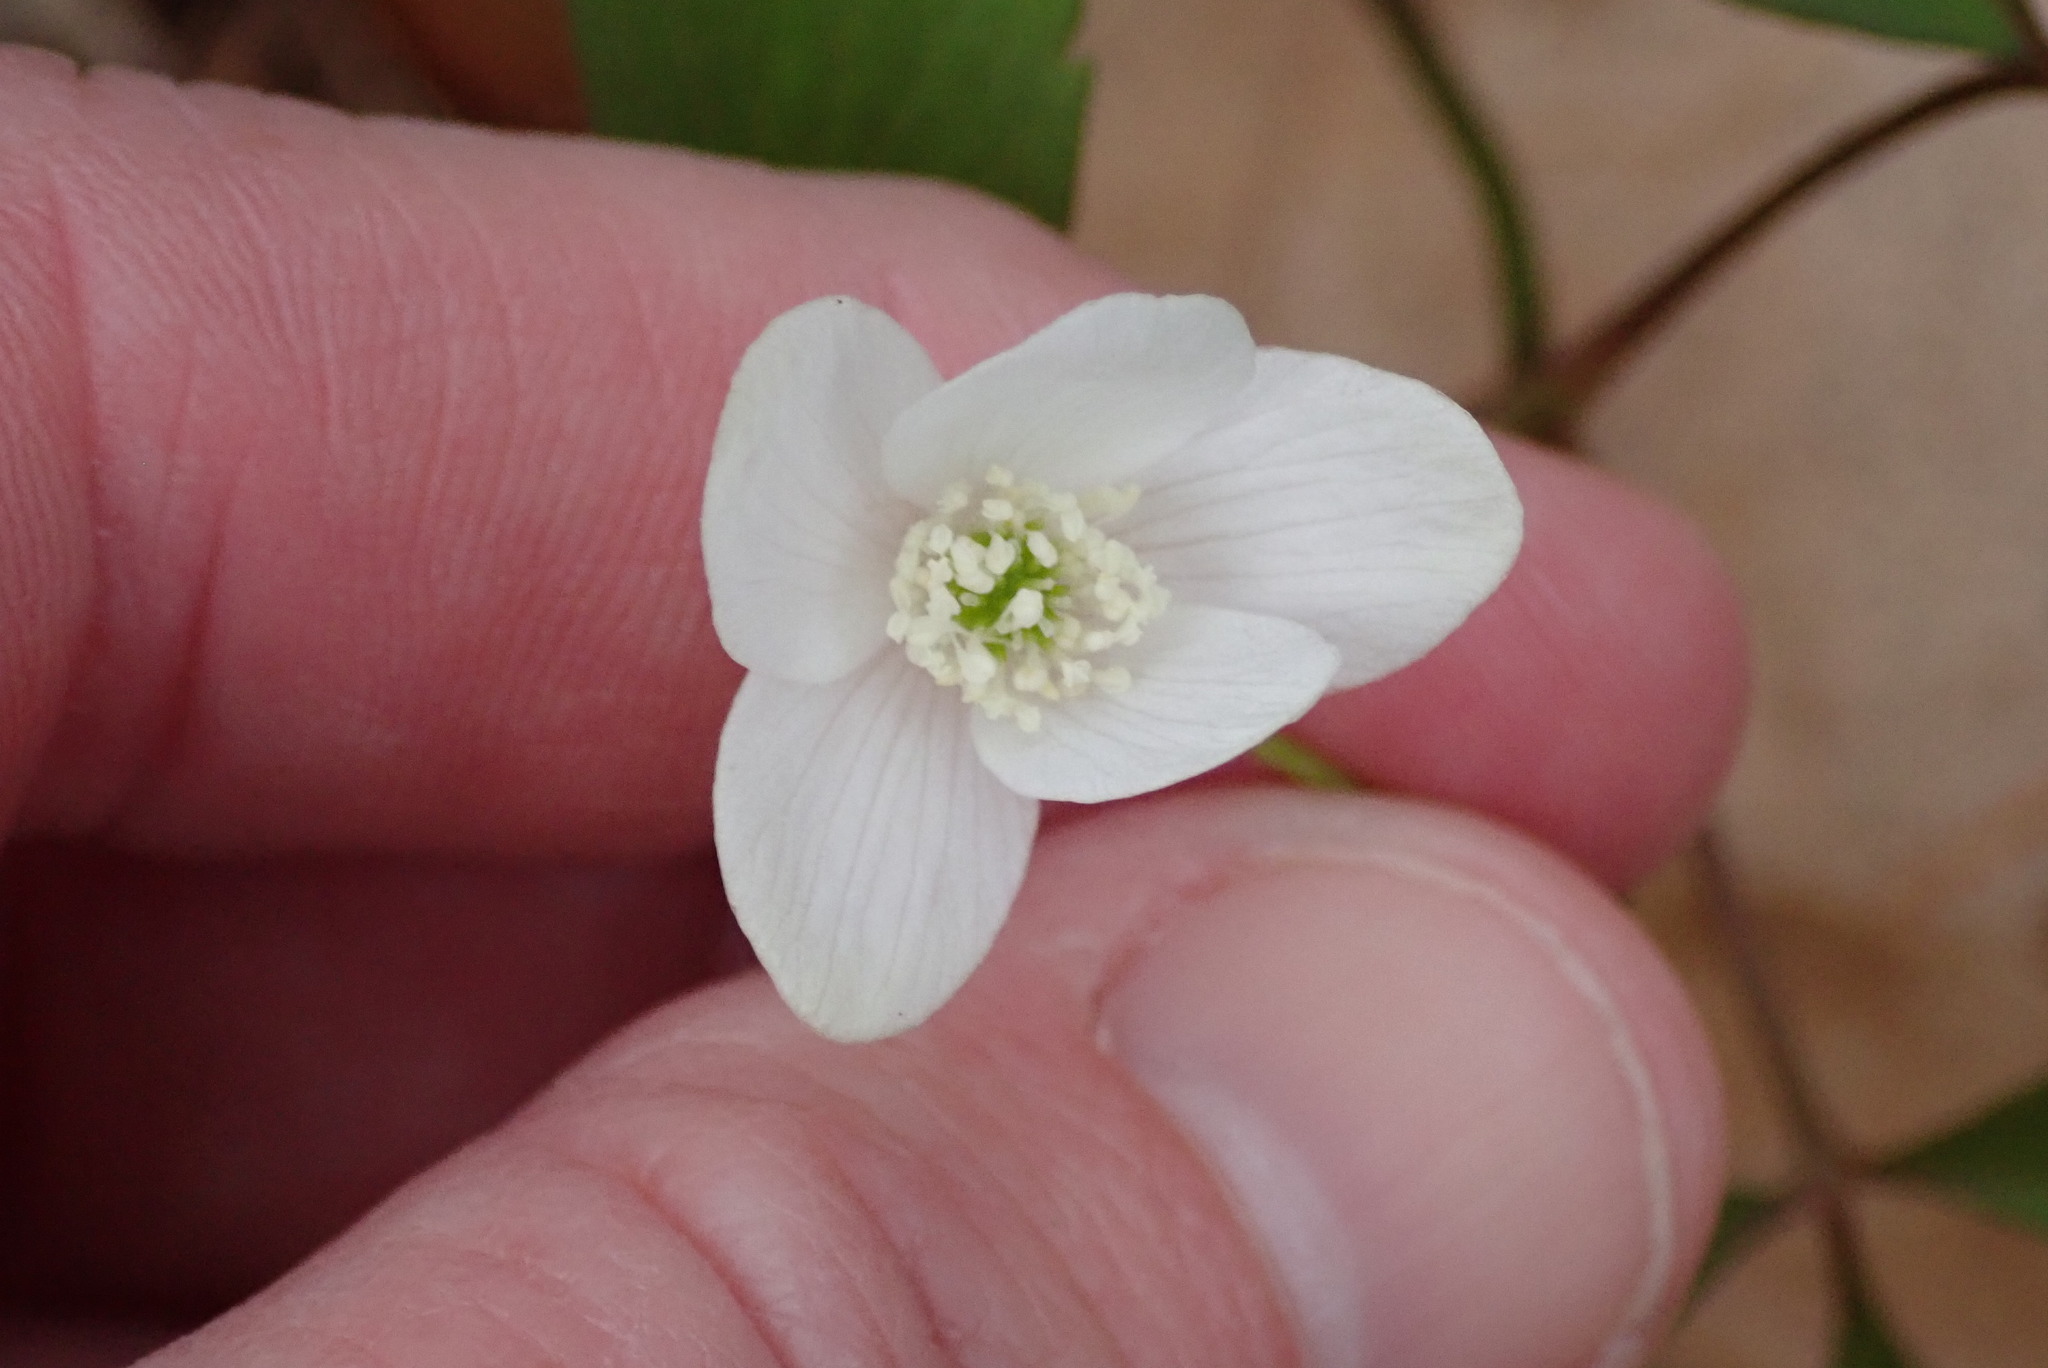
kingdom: Plantae
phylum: Tracheophyta
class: Magnoliopsida
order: Ranunculales
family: Ranunculaceae
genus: Anemone
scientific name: Anemone quinquefolia
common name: Wood anemone
